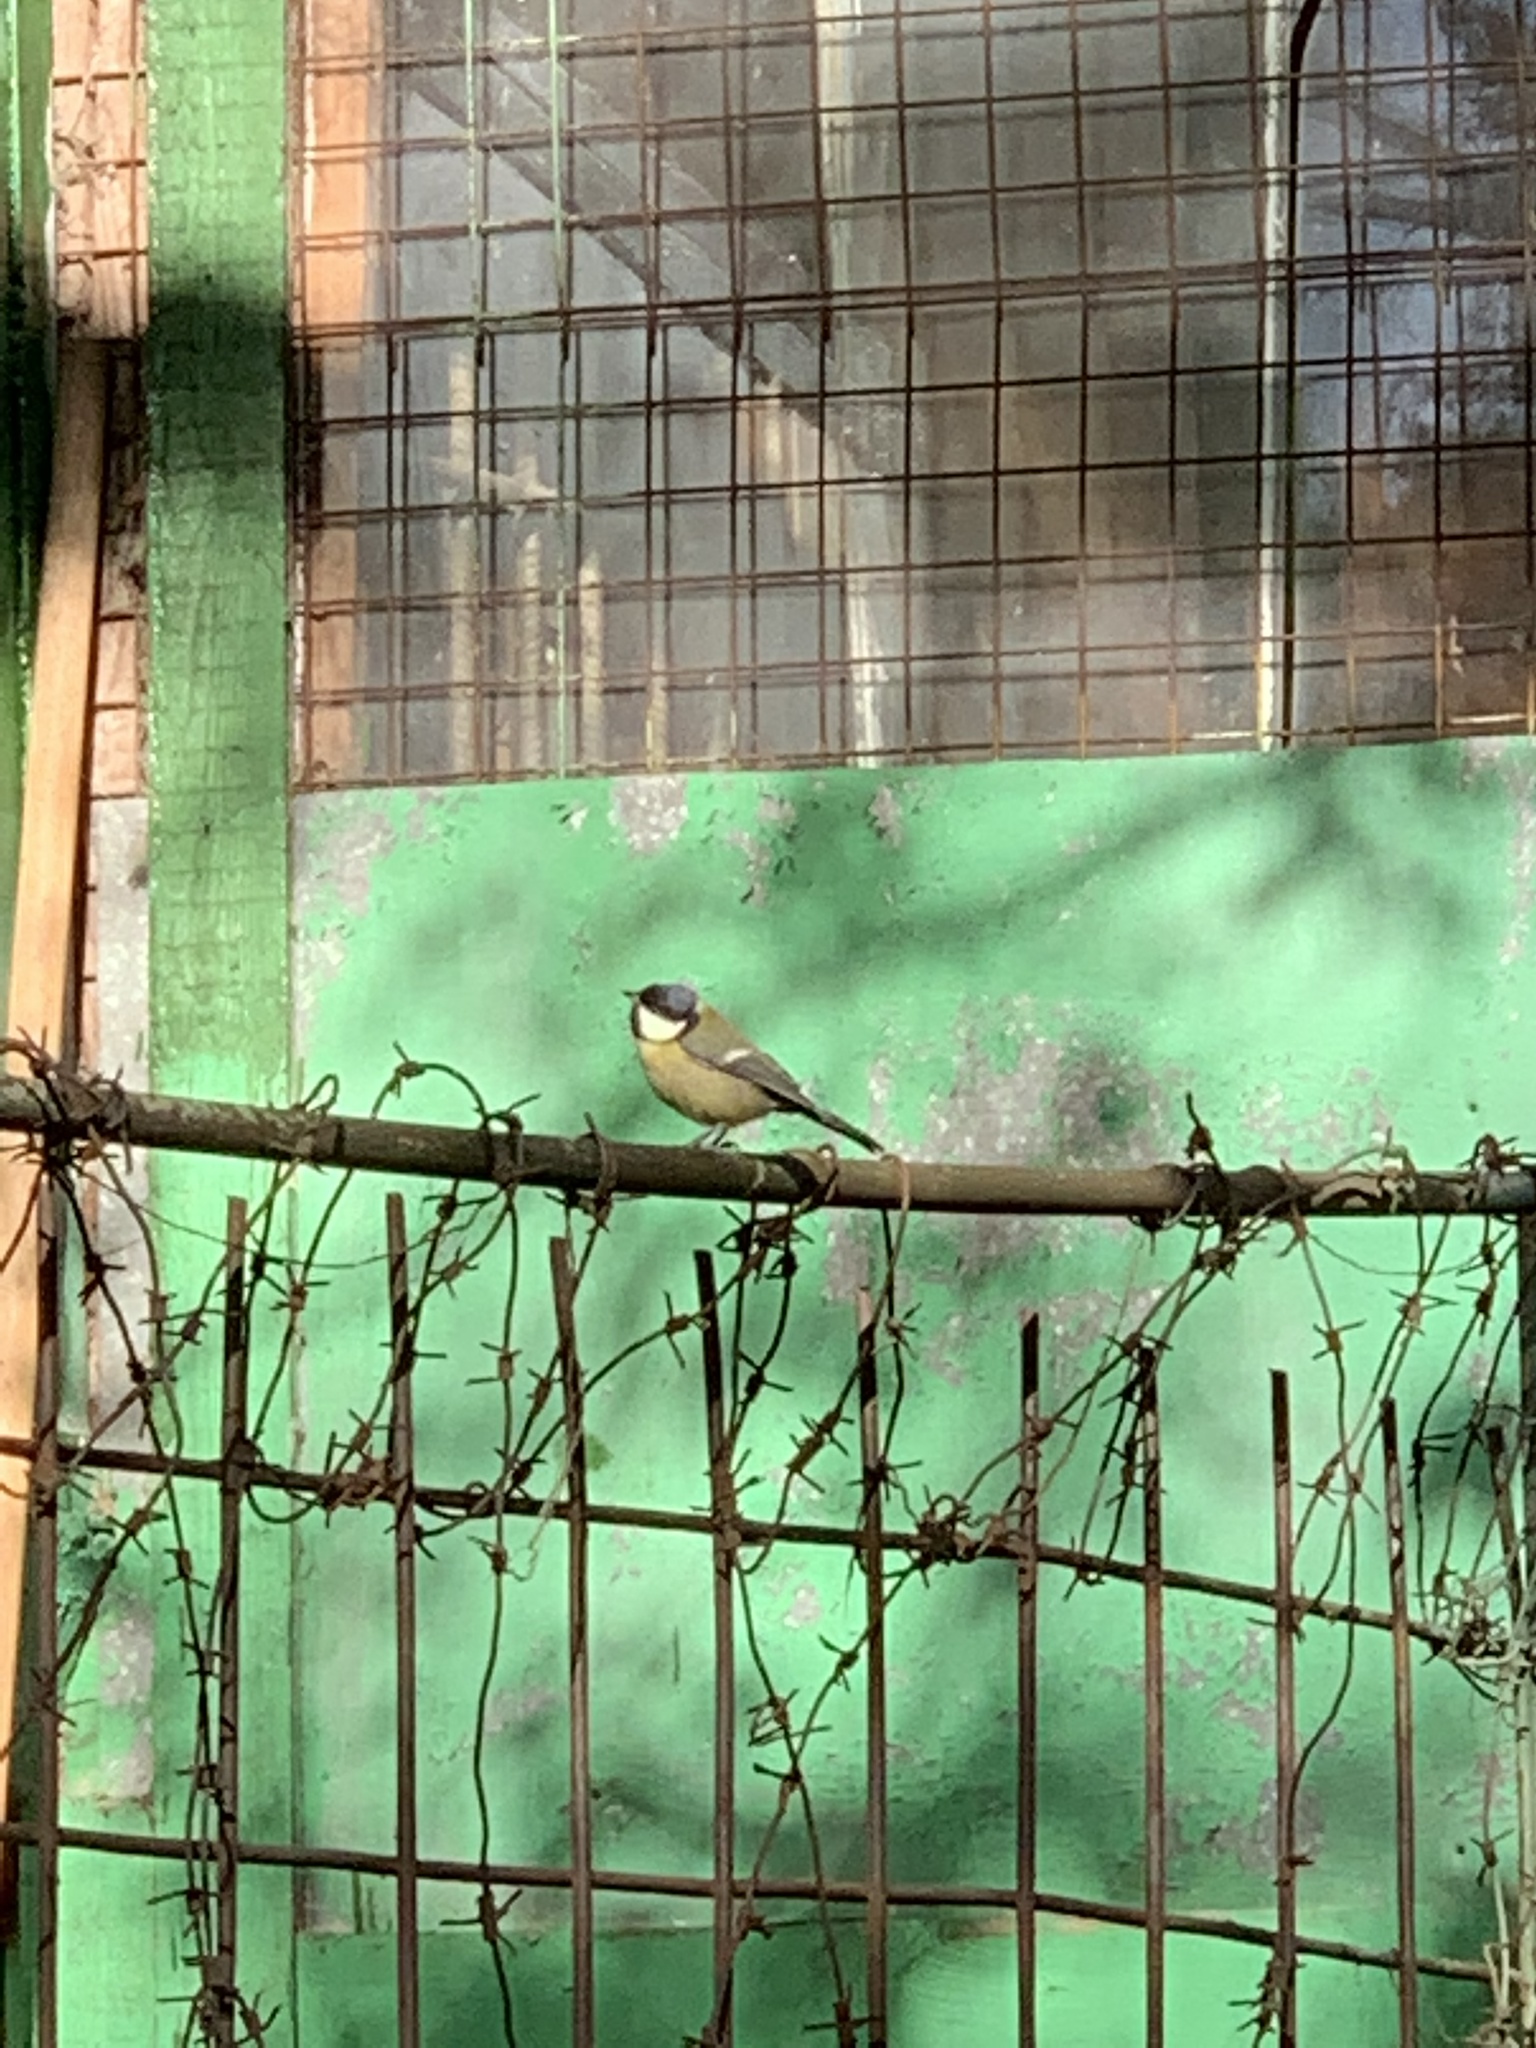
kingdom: Animalia
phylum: Chordata
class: Aves
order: Passeriformes
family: Paridae
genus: Parus
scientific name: Parus major
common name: Great tit
